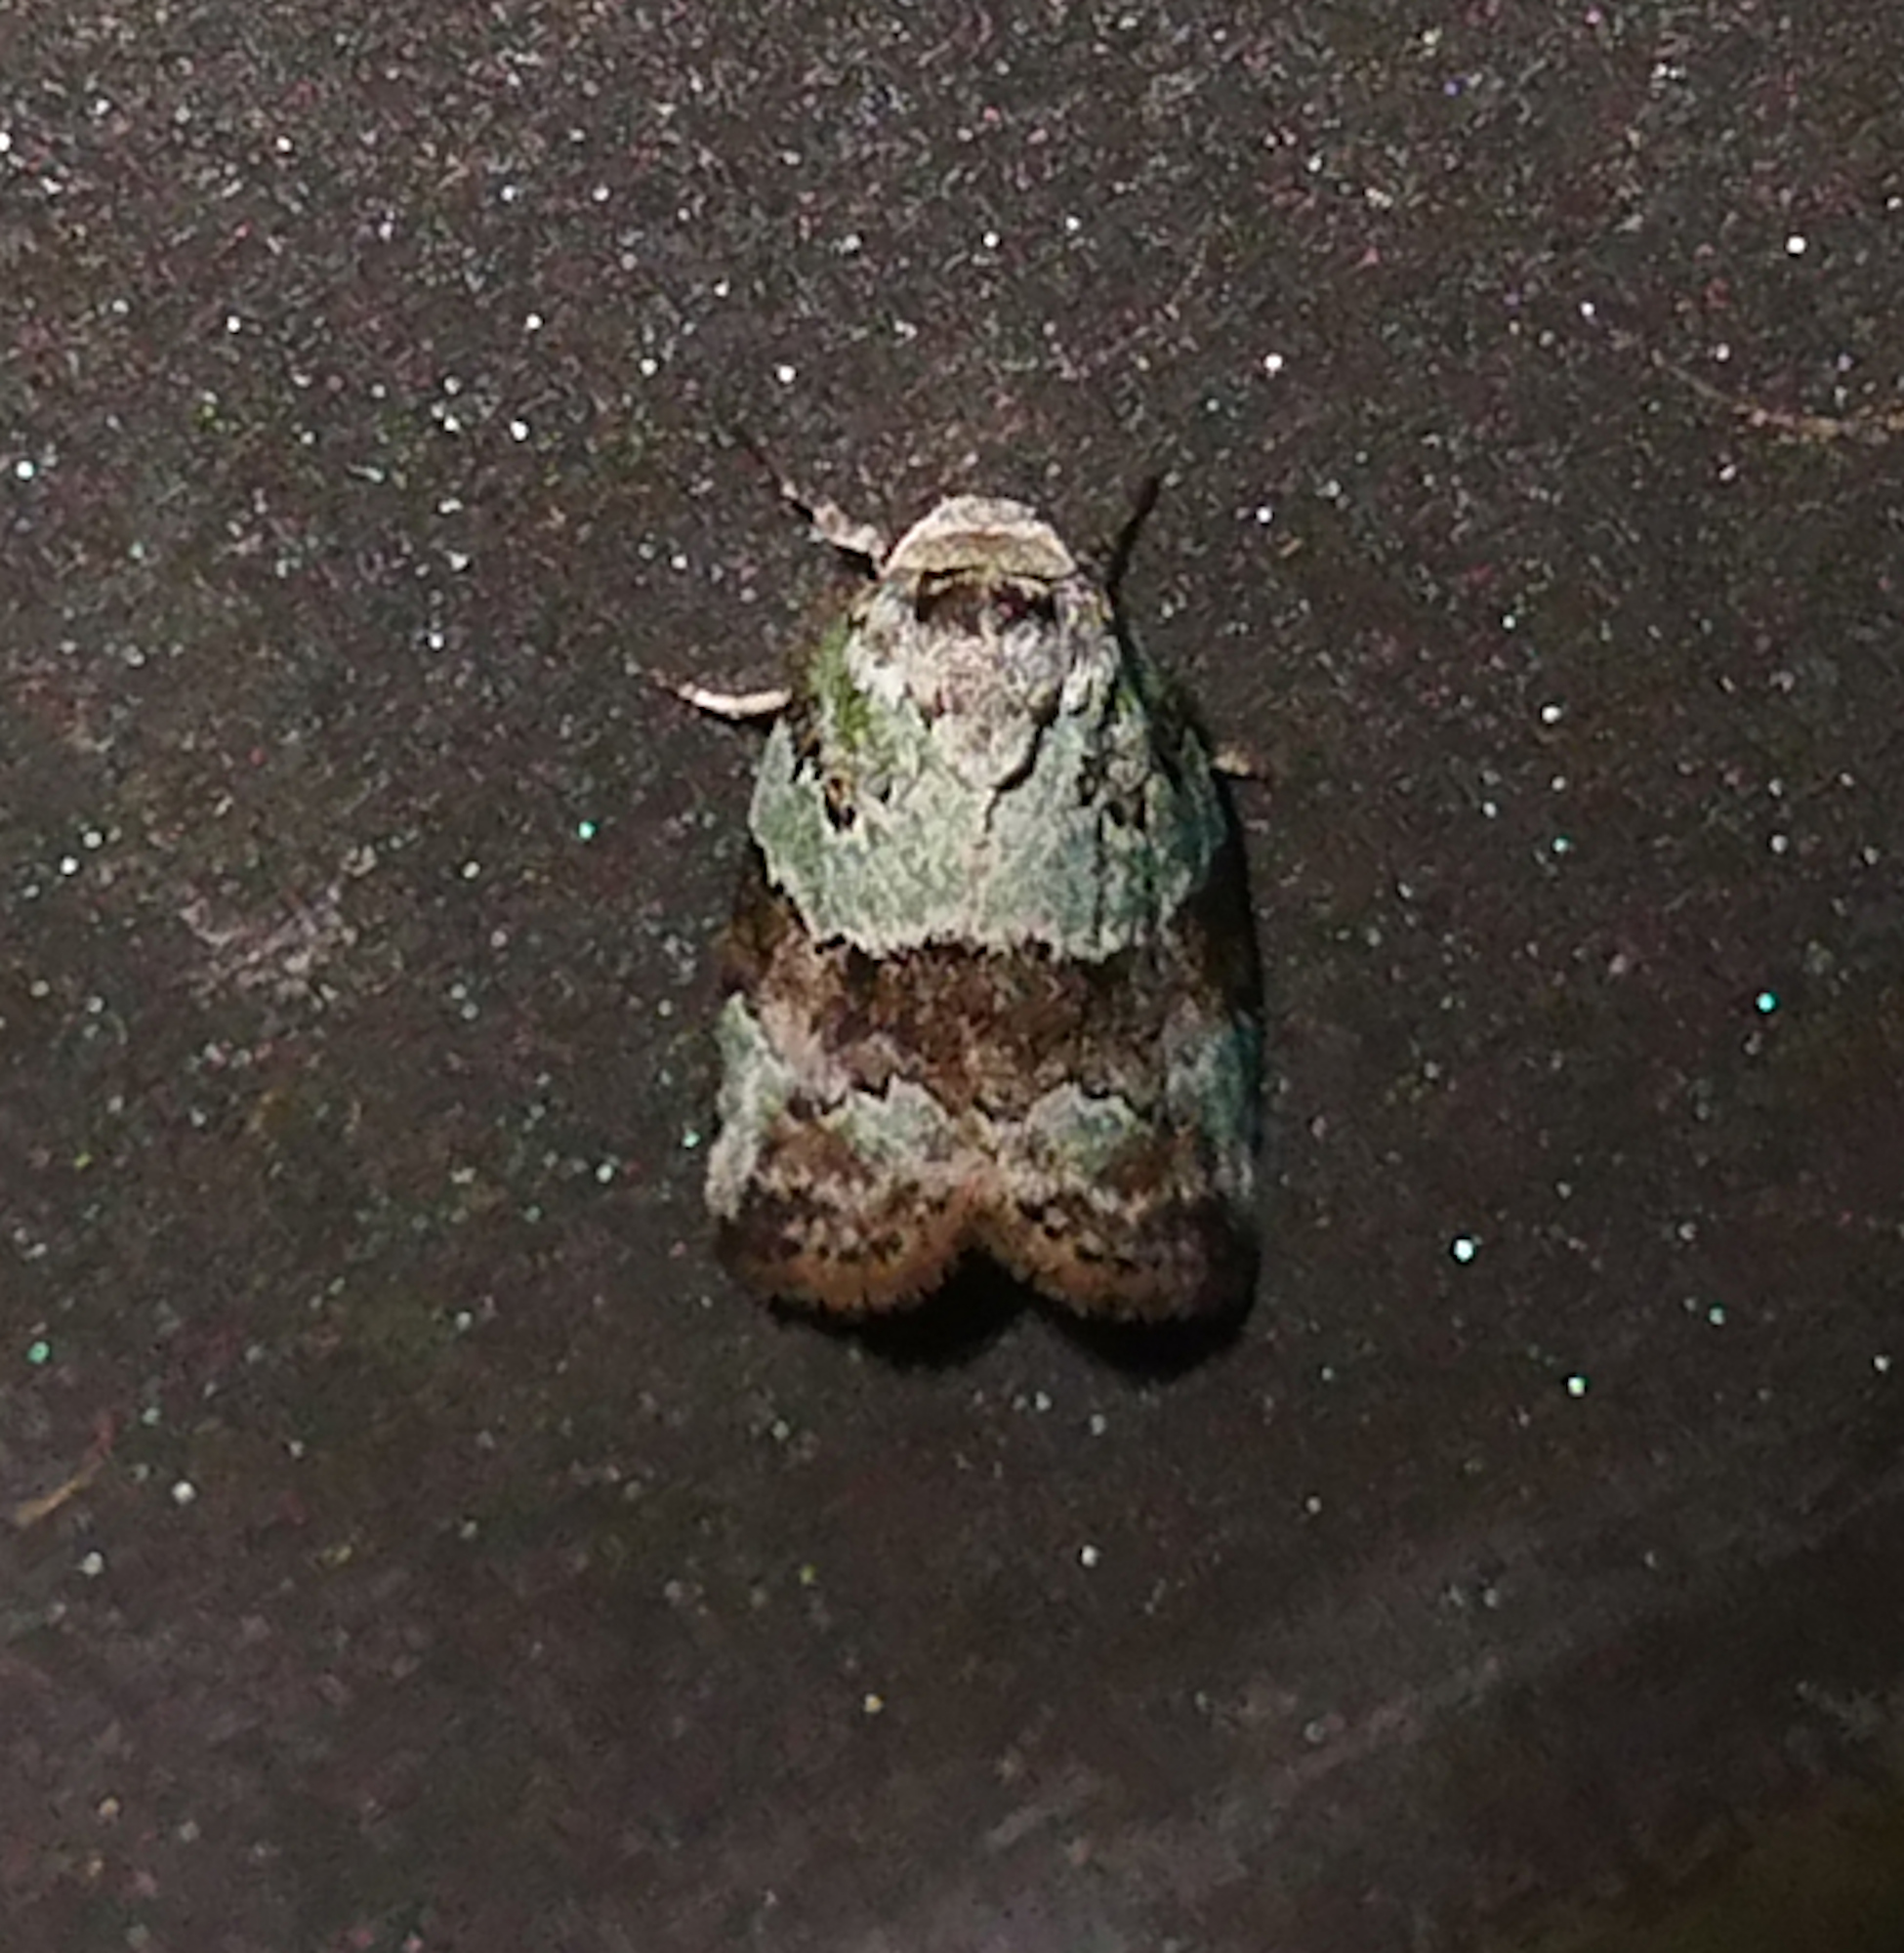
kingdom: Animalia
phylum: Arthropoda
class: Insecta
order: Lepidoptera
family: Nolidae
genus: Afrida
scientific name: Afrida ydatodes
